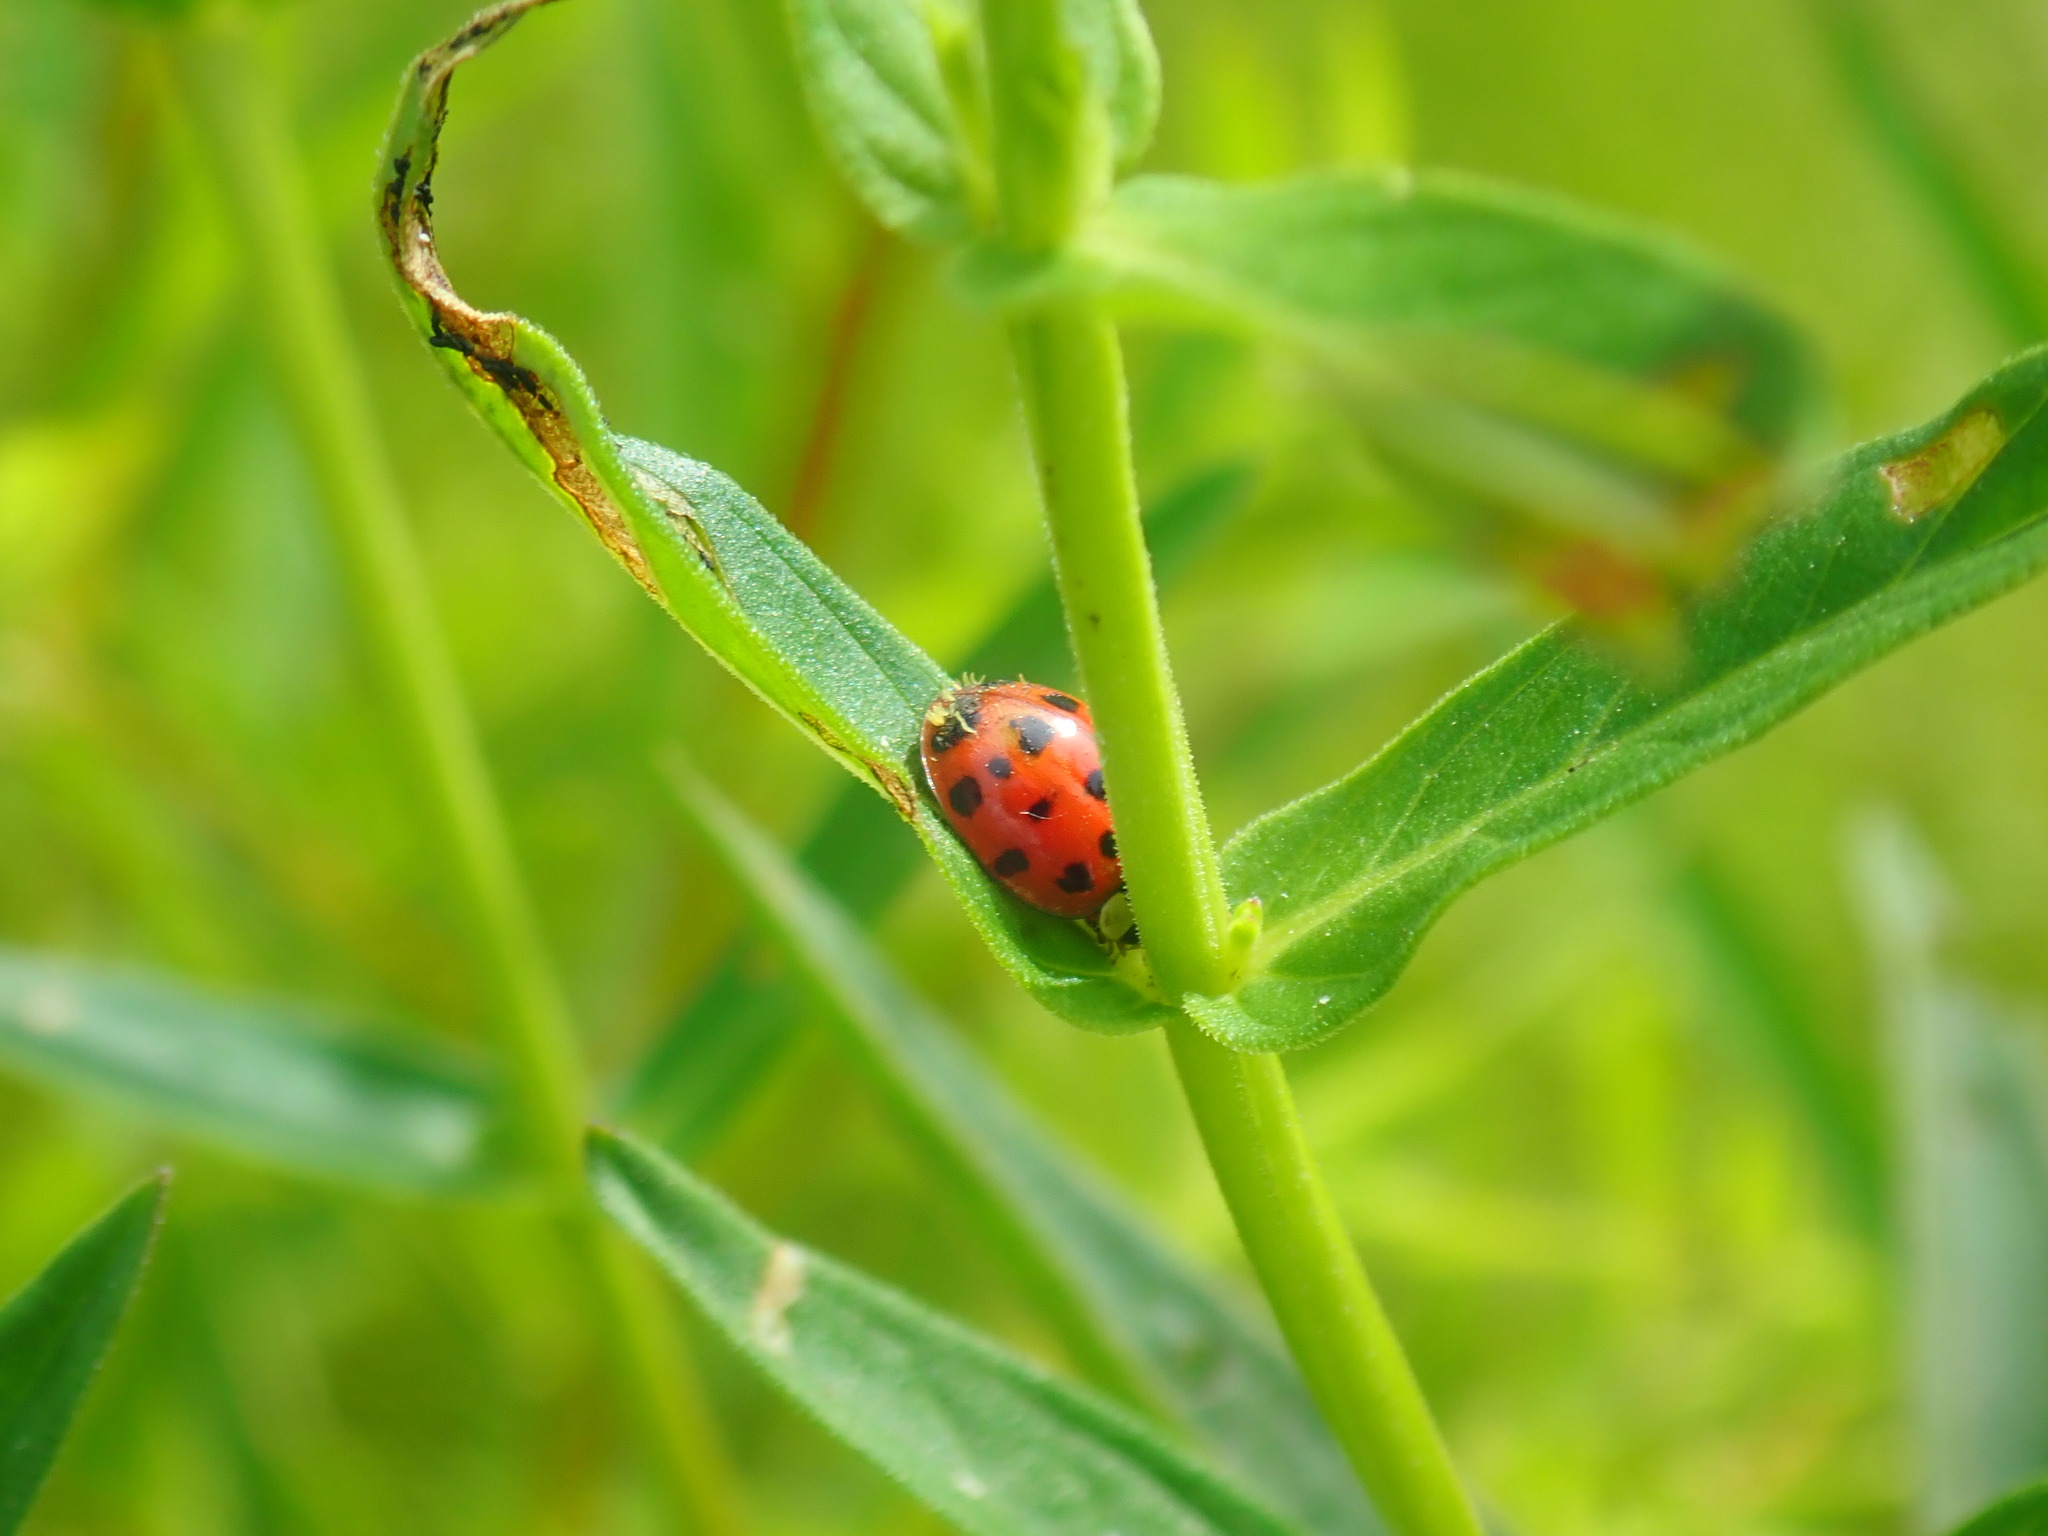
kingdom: Animalia
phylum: Arthropoda
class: Insecta
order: Coleoptera
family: Coccinellidae
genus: Harmonia
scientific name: Harmonia axyridis
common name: Harlequin ladybird
